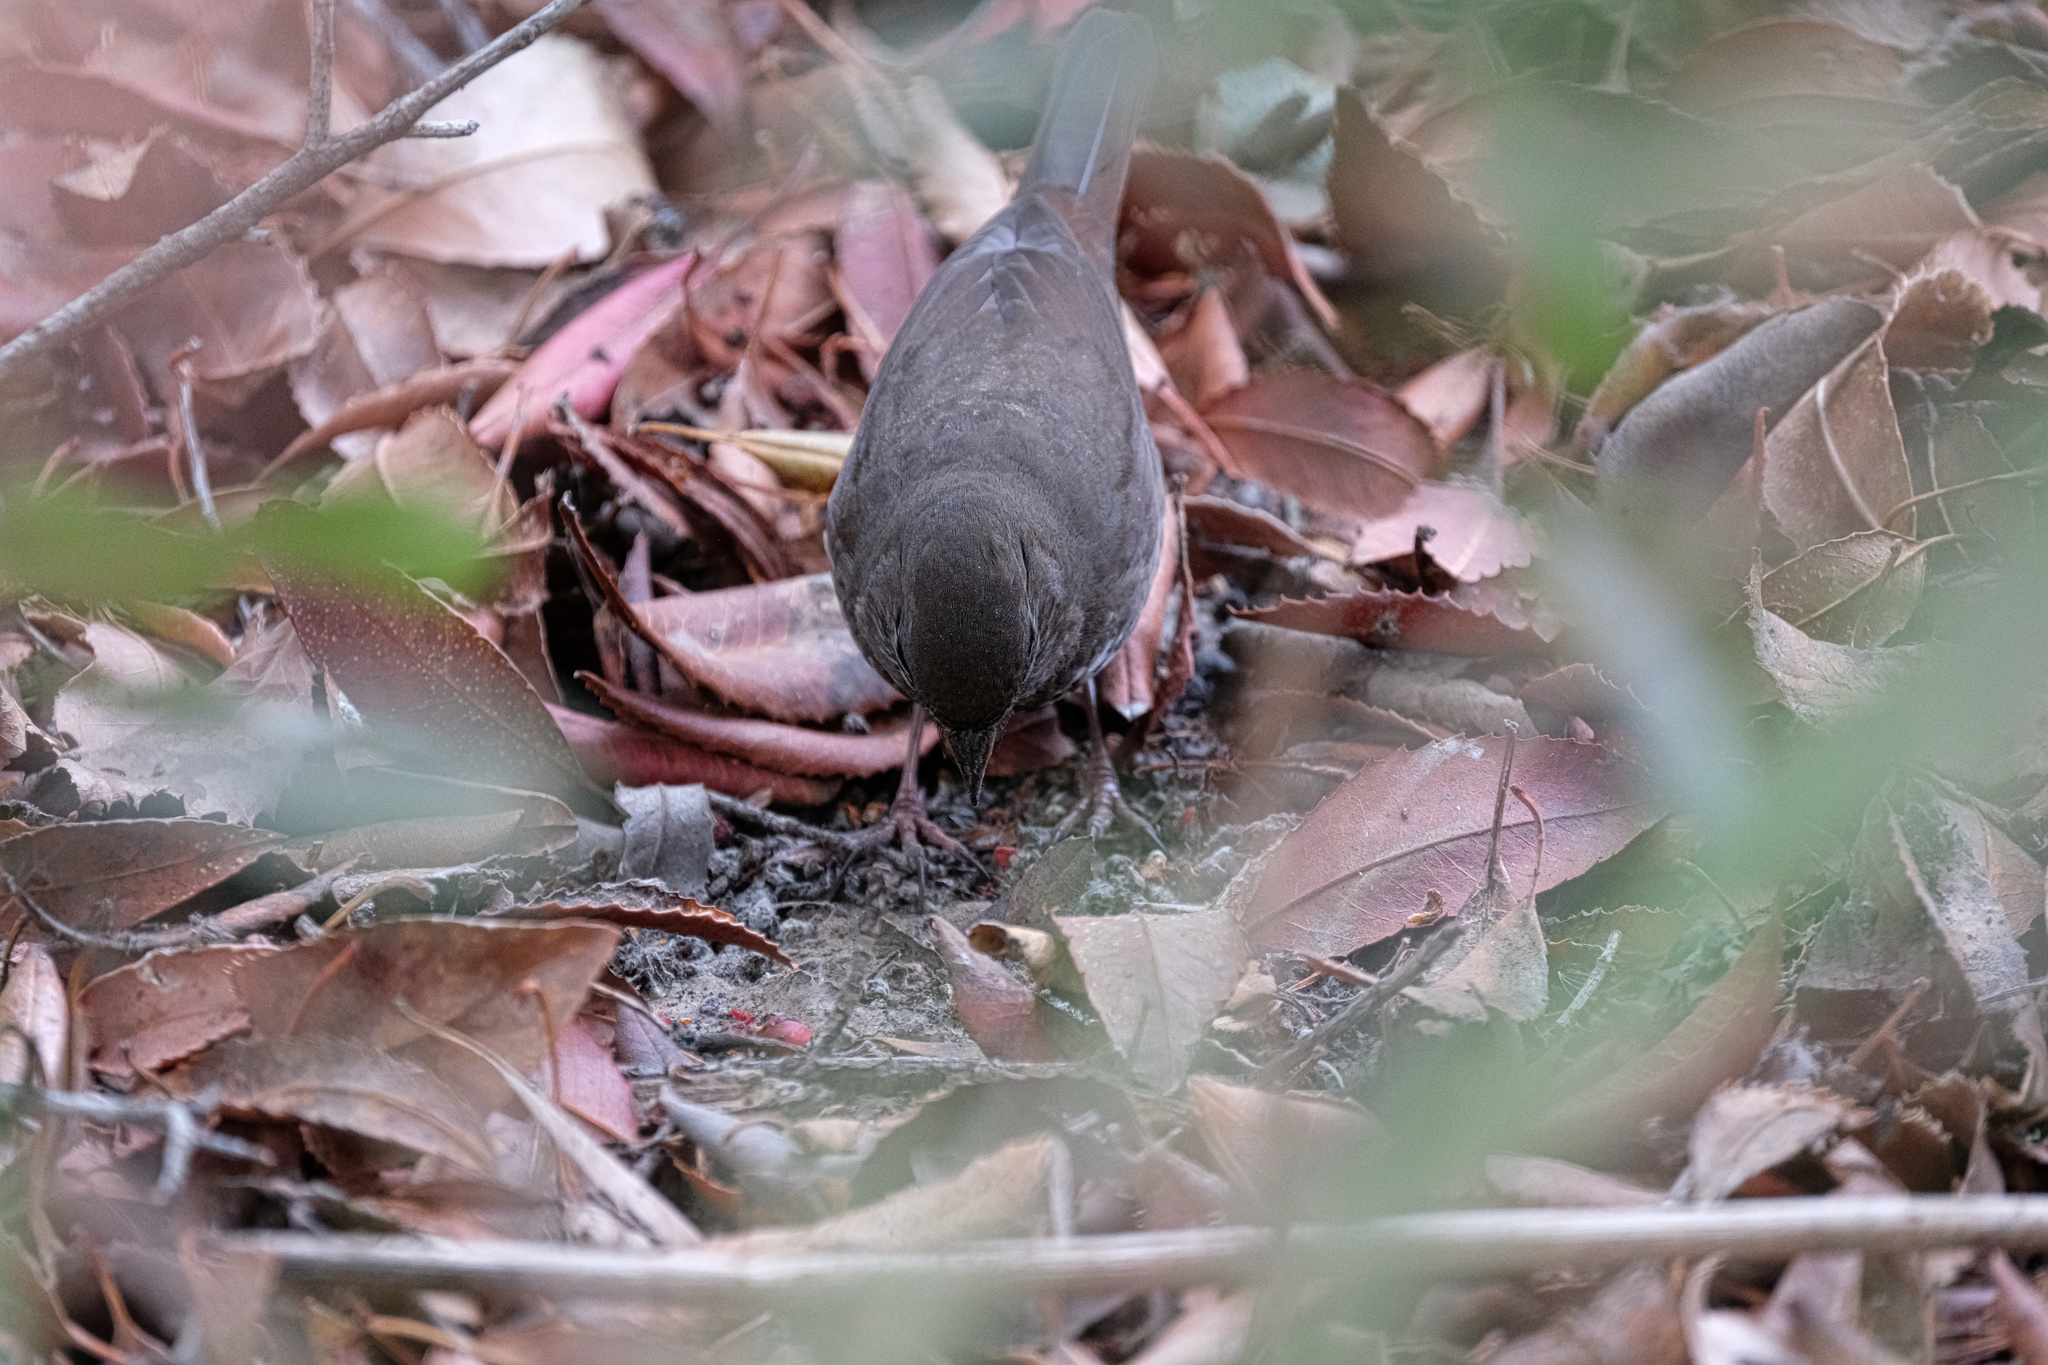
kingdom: Animalia
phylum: Chordata
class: Aves
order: Passeriformes
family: Passerellidae
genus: Passerella
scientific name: Passerella iliaca
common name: Fox sparrow
